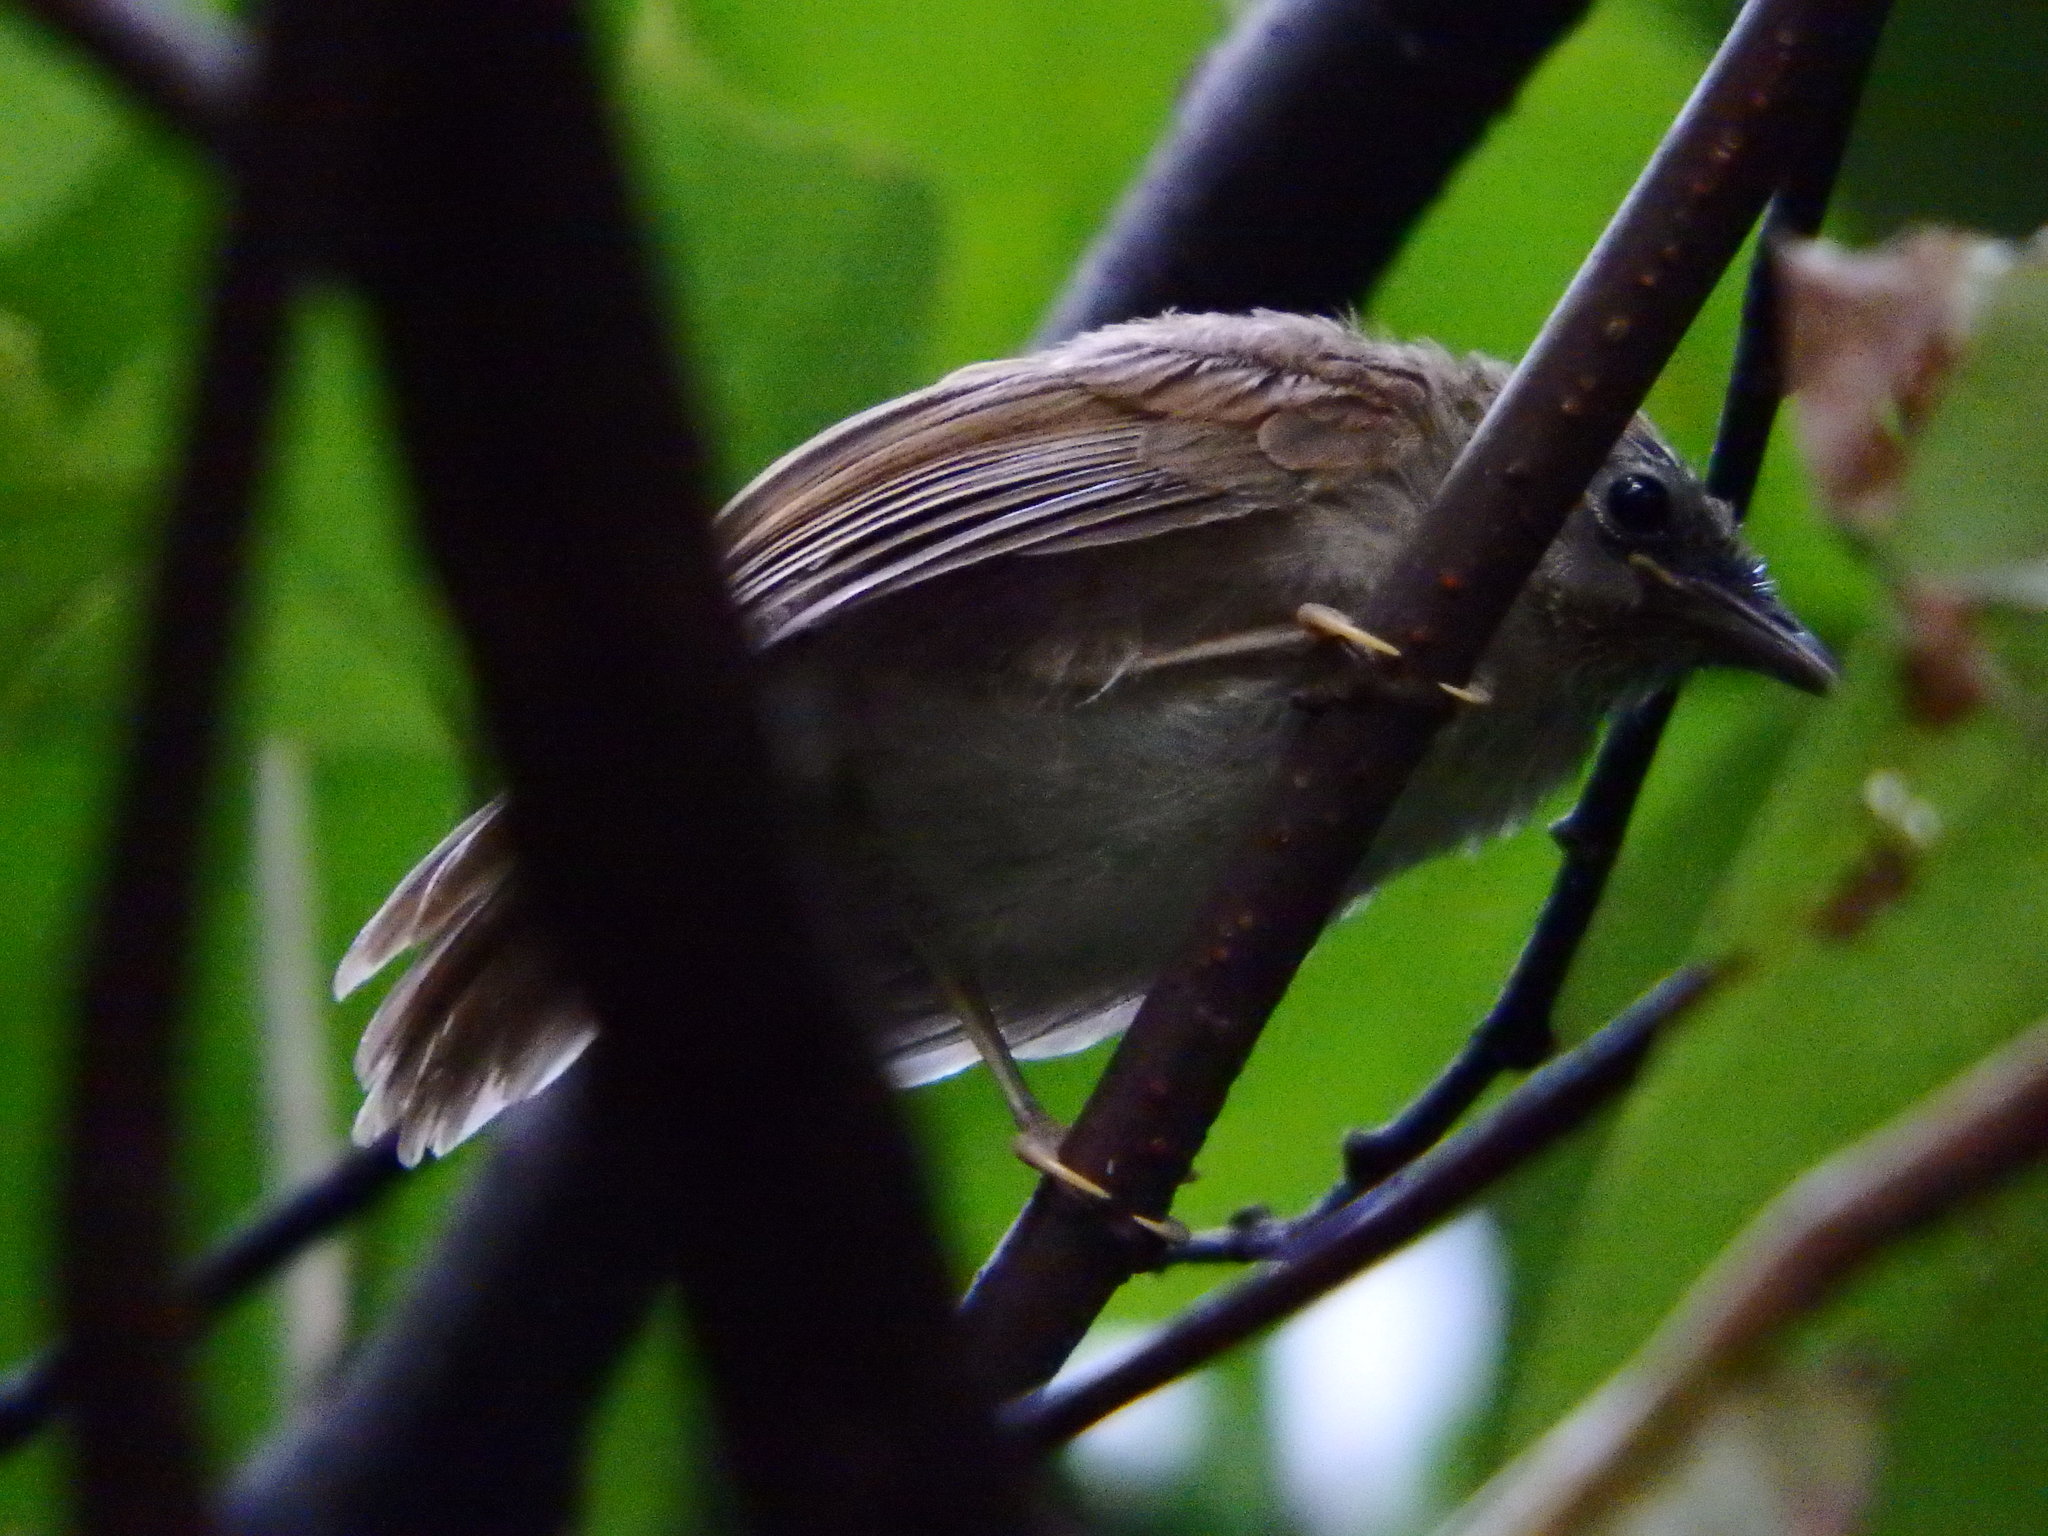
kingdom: Animalia
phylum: Chordata
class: Aves
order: Passeriformes
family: Timaliidae
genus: Macronus
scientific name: Macronus gularis
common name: Striped tit-babbler
